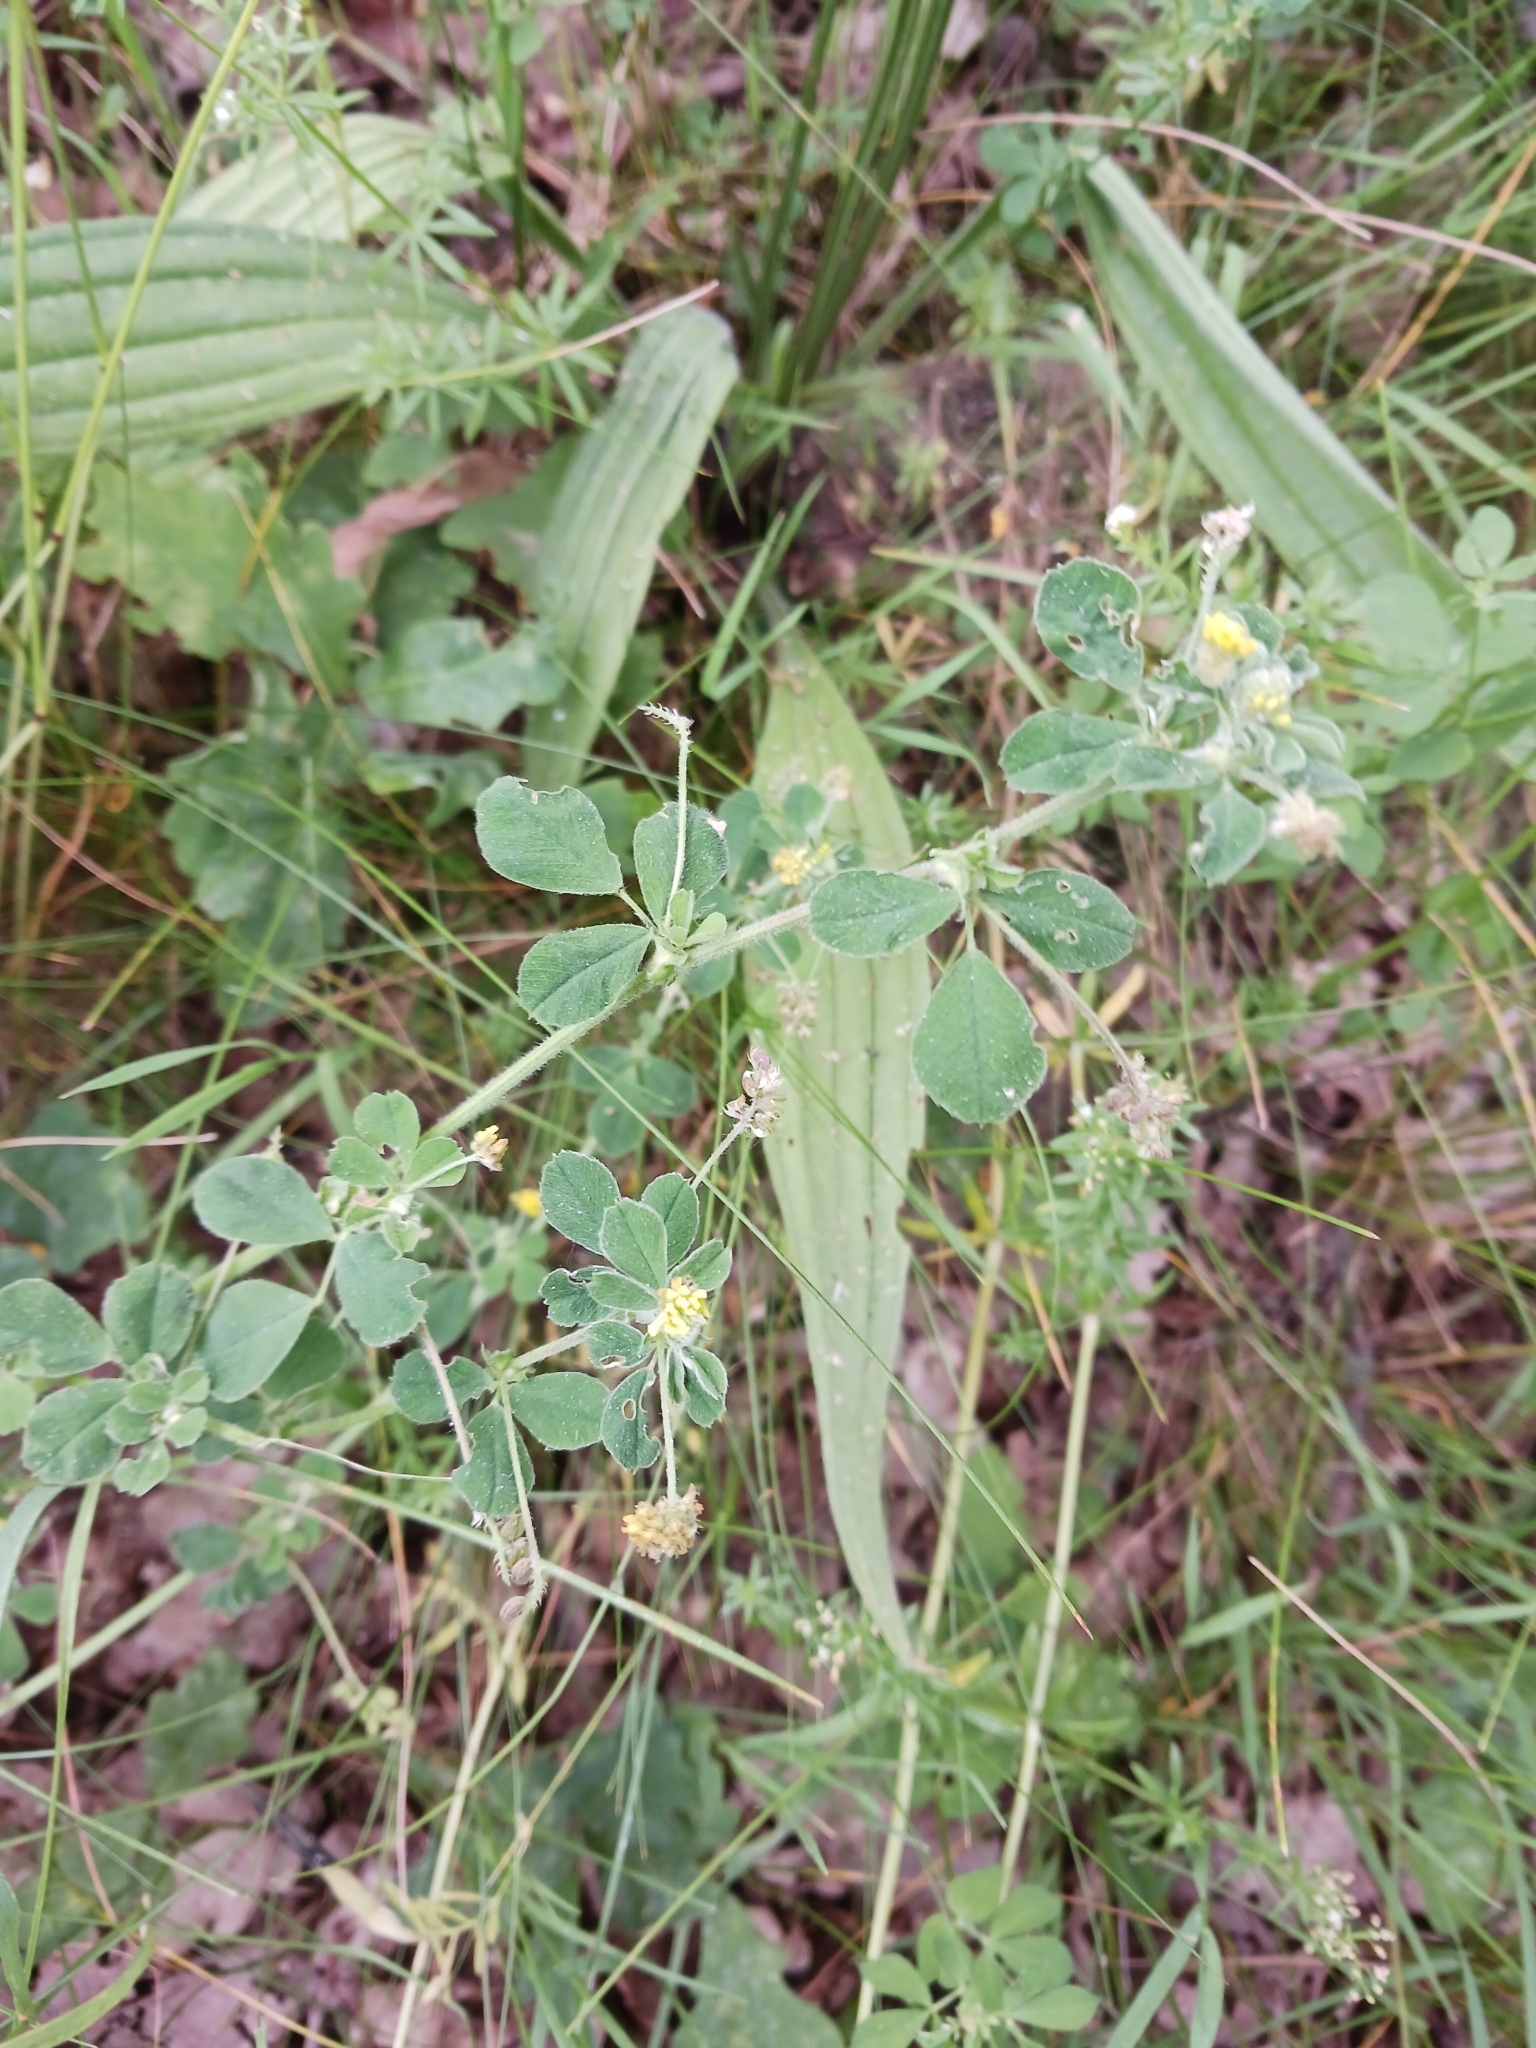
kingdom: Plantae
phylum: Tracheophyta
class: Magnoliopsida
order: Fabales
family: Fabaceae
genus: Medicago
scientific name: Medicago lupulina
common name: Black medick
